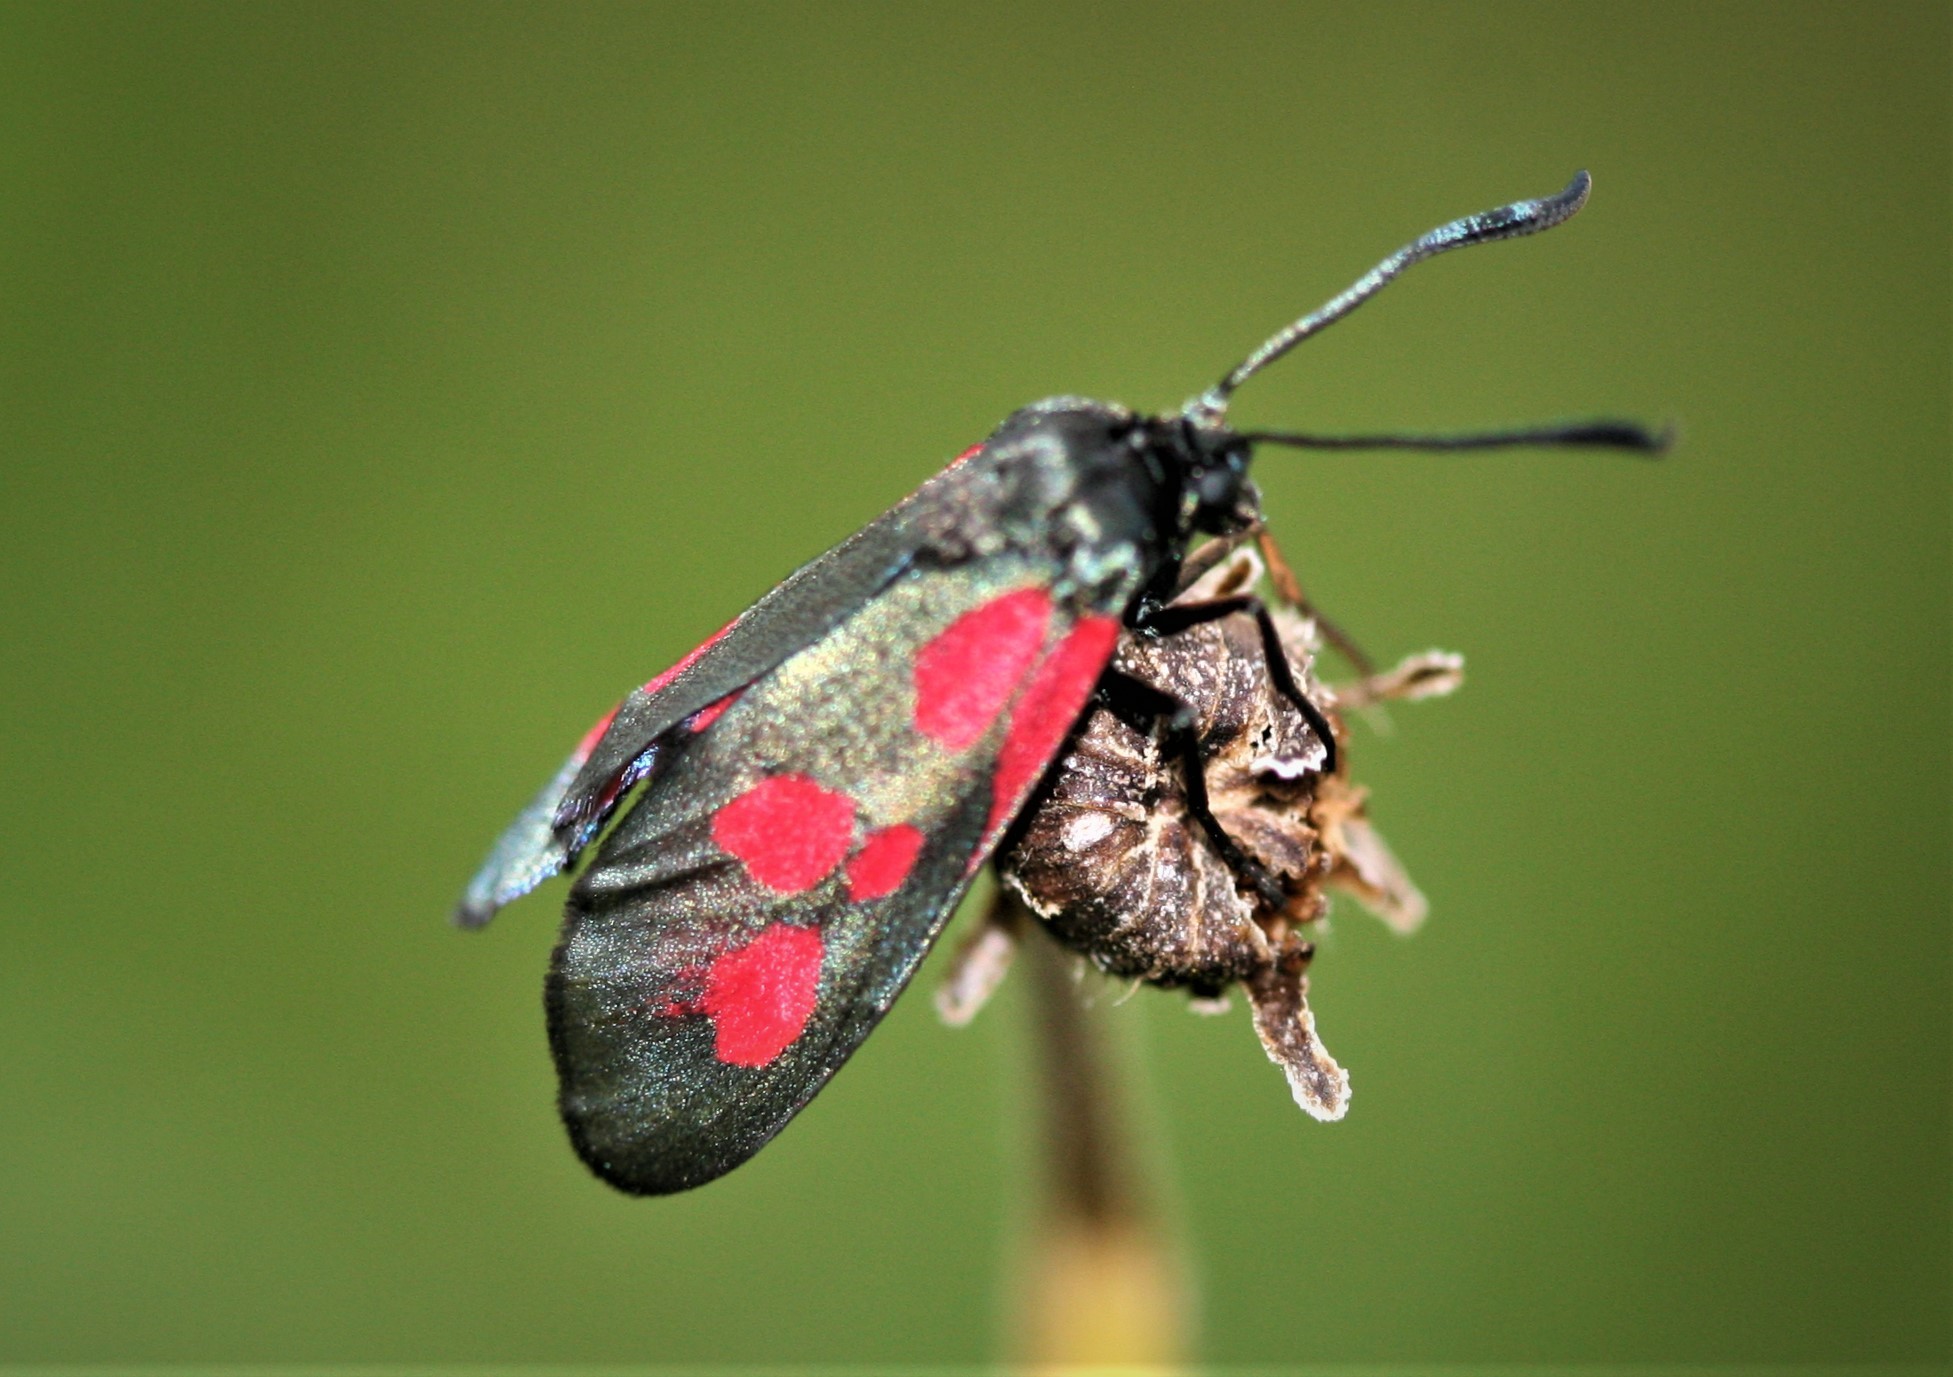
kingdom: Animalia
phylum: Arthropoda
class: Insecta
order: Lepidoptera
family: Zygaenidae
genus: Zygaena
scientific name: Zygaena lonicerae
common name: Narrow-bordered five-spot burnet
